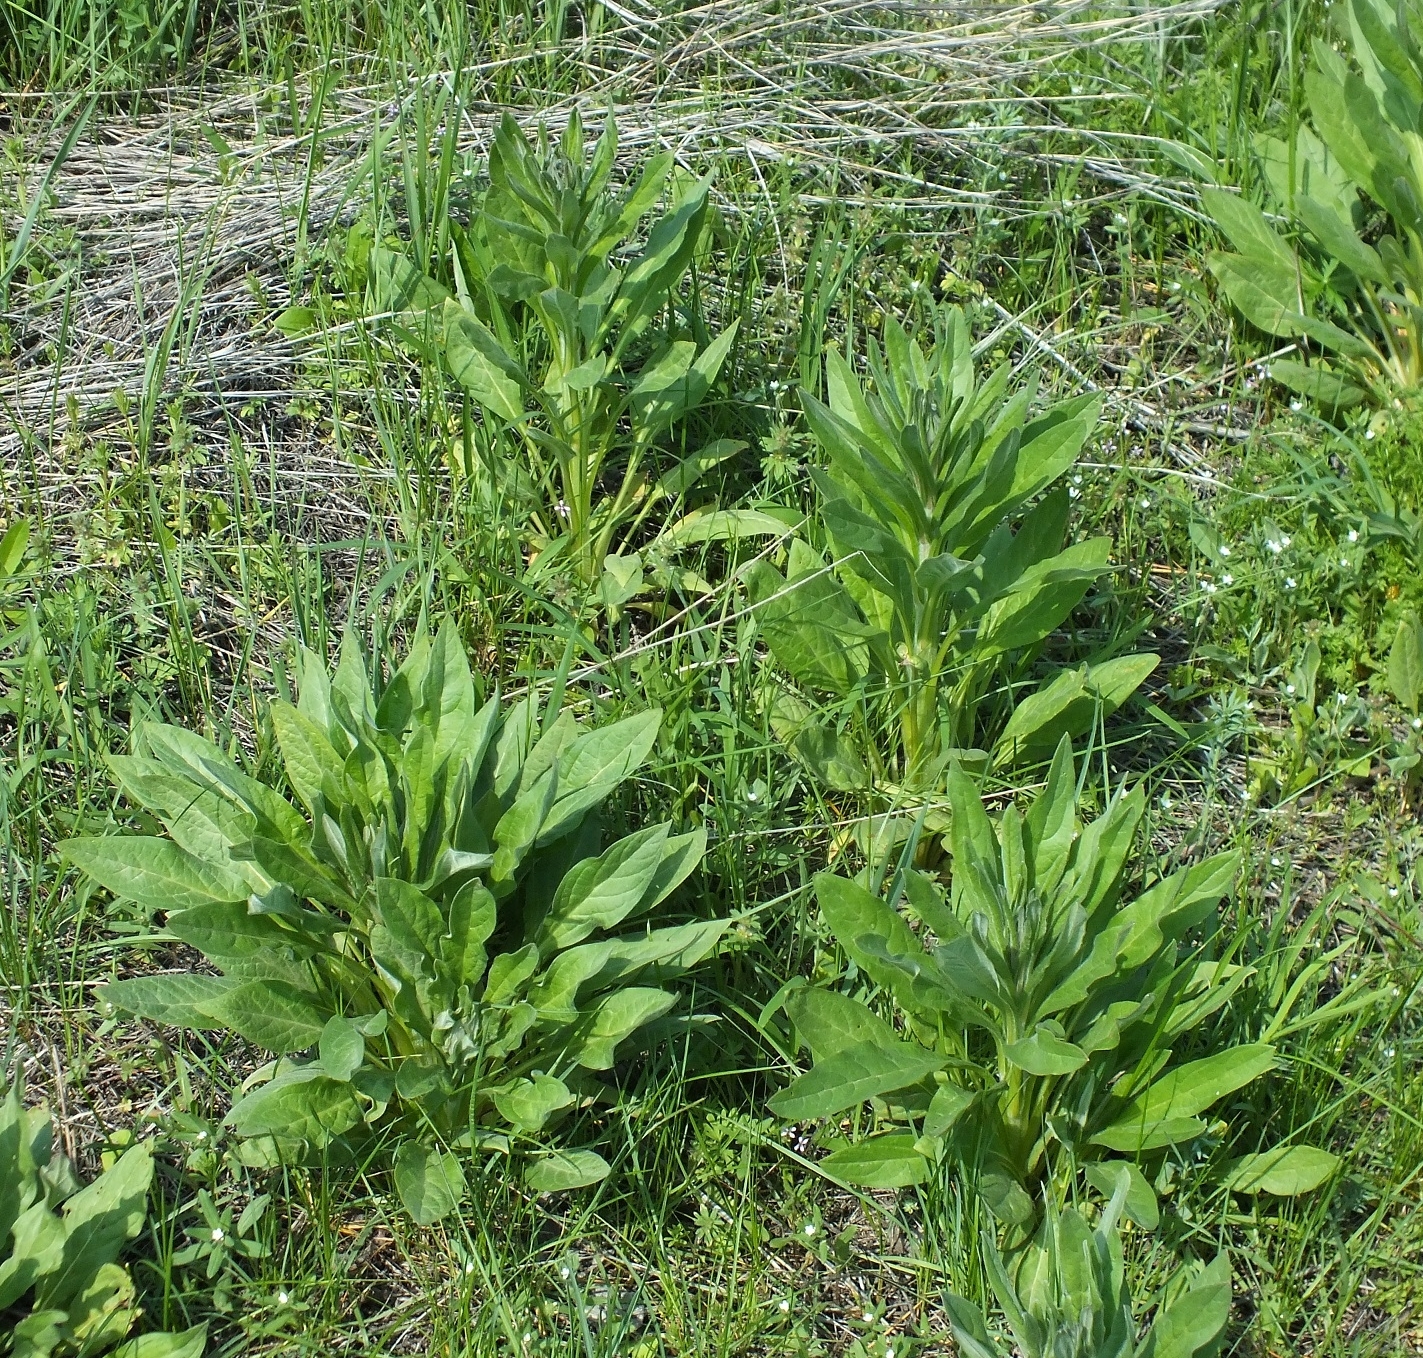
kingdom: Plantae
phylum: Tracheophyta
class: Magnoliopsida
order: Boraginales
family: Boraginaceae
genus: Cynoglossum
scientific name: Cynoglossum officinale
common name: Hound's-tongue
